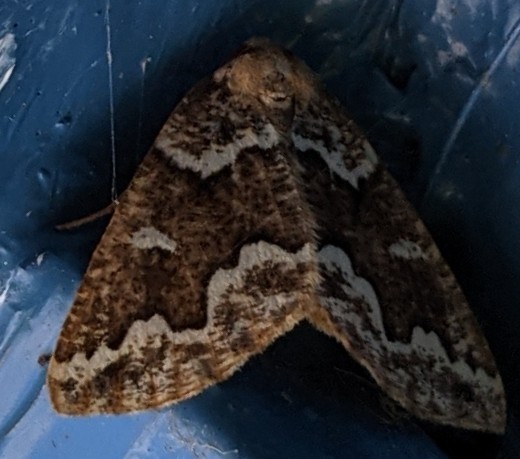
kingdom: Animalia
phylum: Arthropoda
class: Insecta
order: Lepidoptera
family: Geometridae
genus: Caripeta
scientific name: Caripeta divisata
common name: Gray spruce looper
